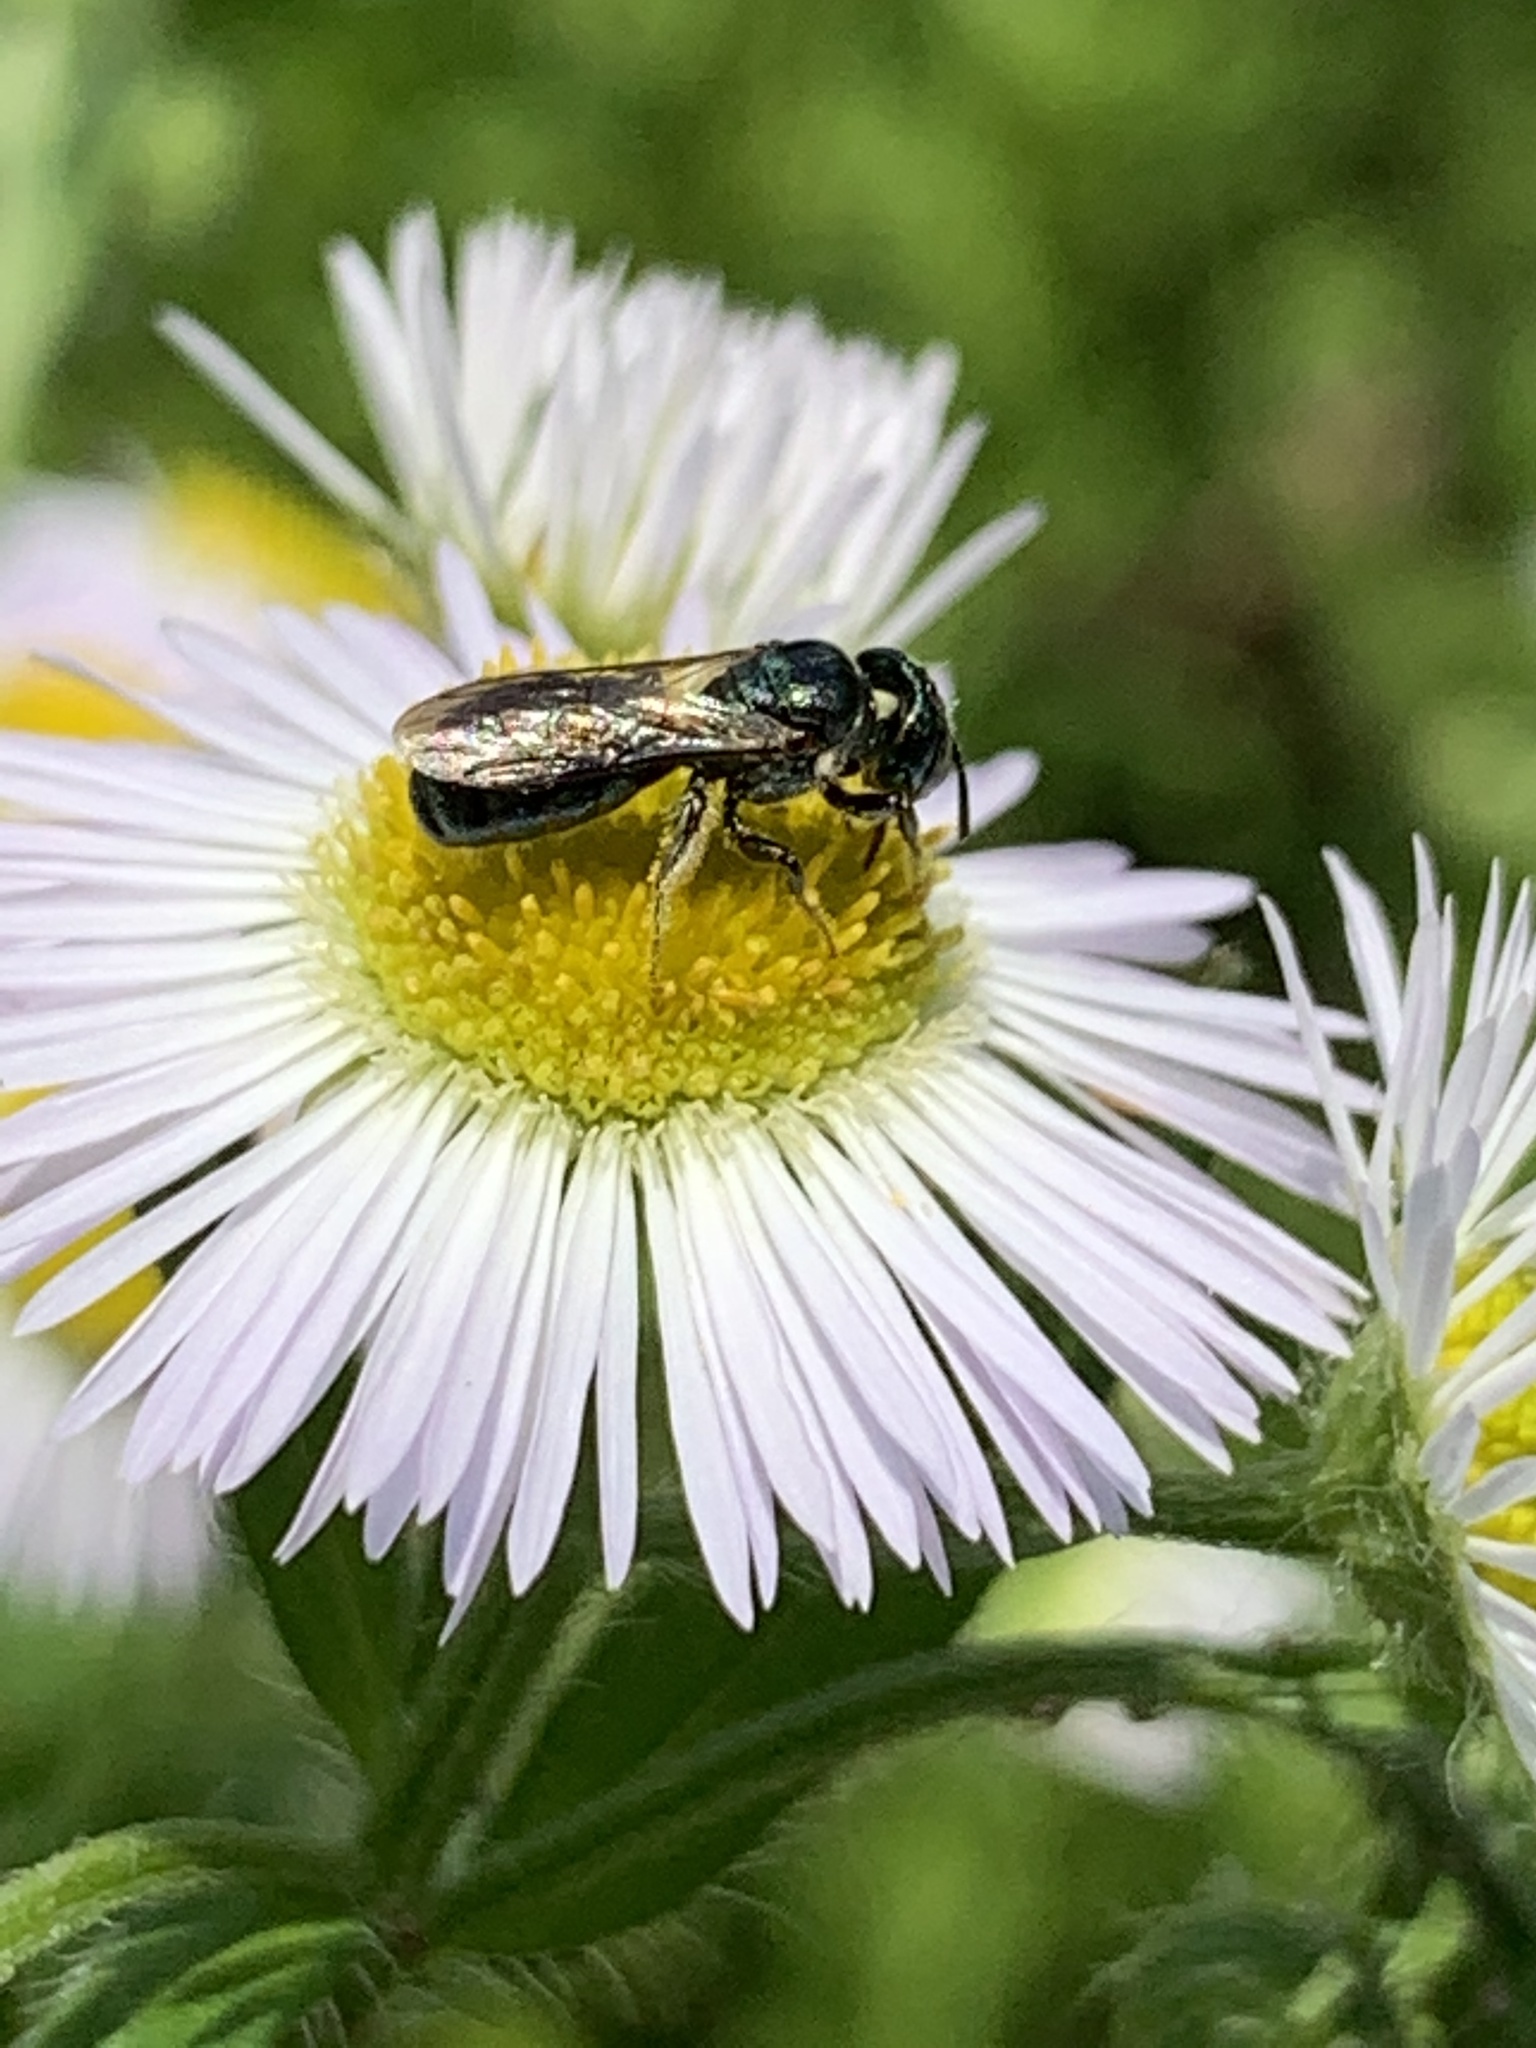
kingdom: Animalia
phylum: Arthropoda
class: Insecta
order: Hymenoptera
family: Apidae
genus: Zadontomerus
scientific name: Zadontomerus
